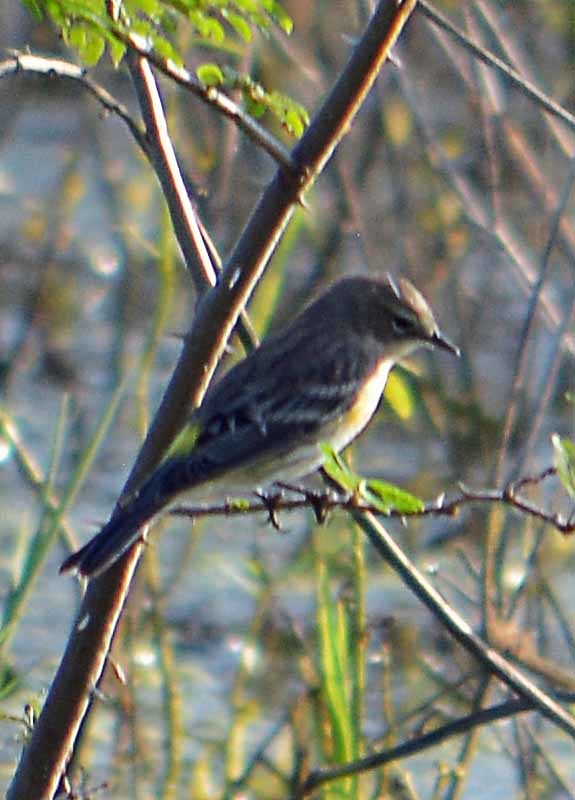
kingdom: Animalia
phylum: Chordata
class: Aves
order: Passeriformes
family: Parulidae
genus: Setophaga
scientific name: Setophaga coronata
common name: Myrtle warbler
